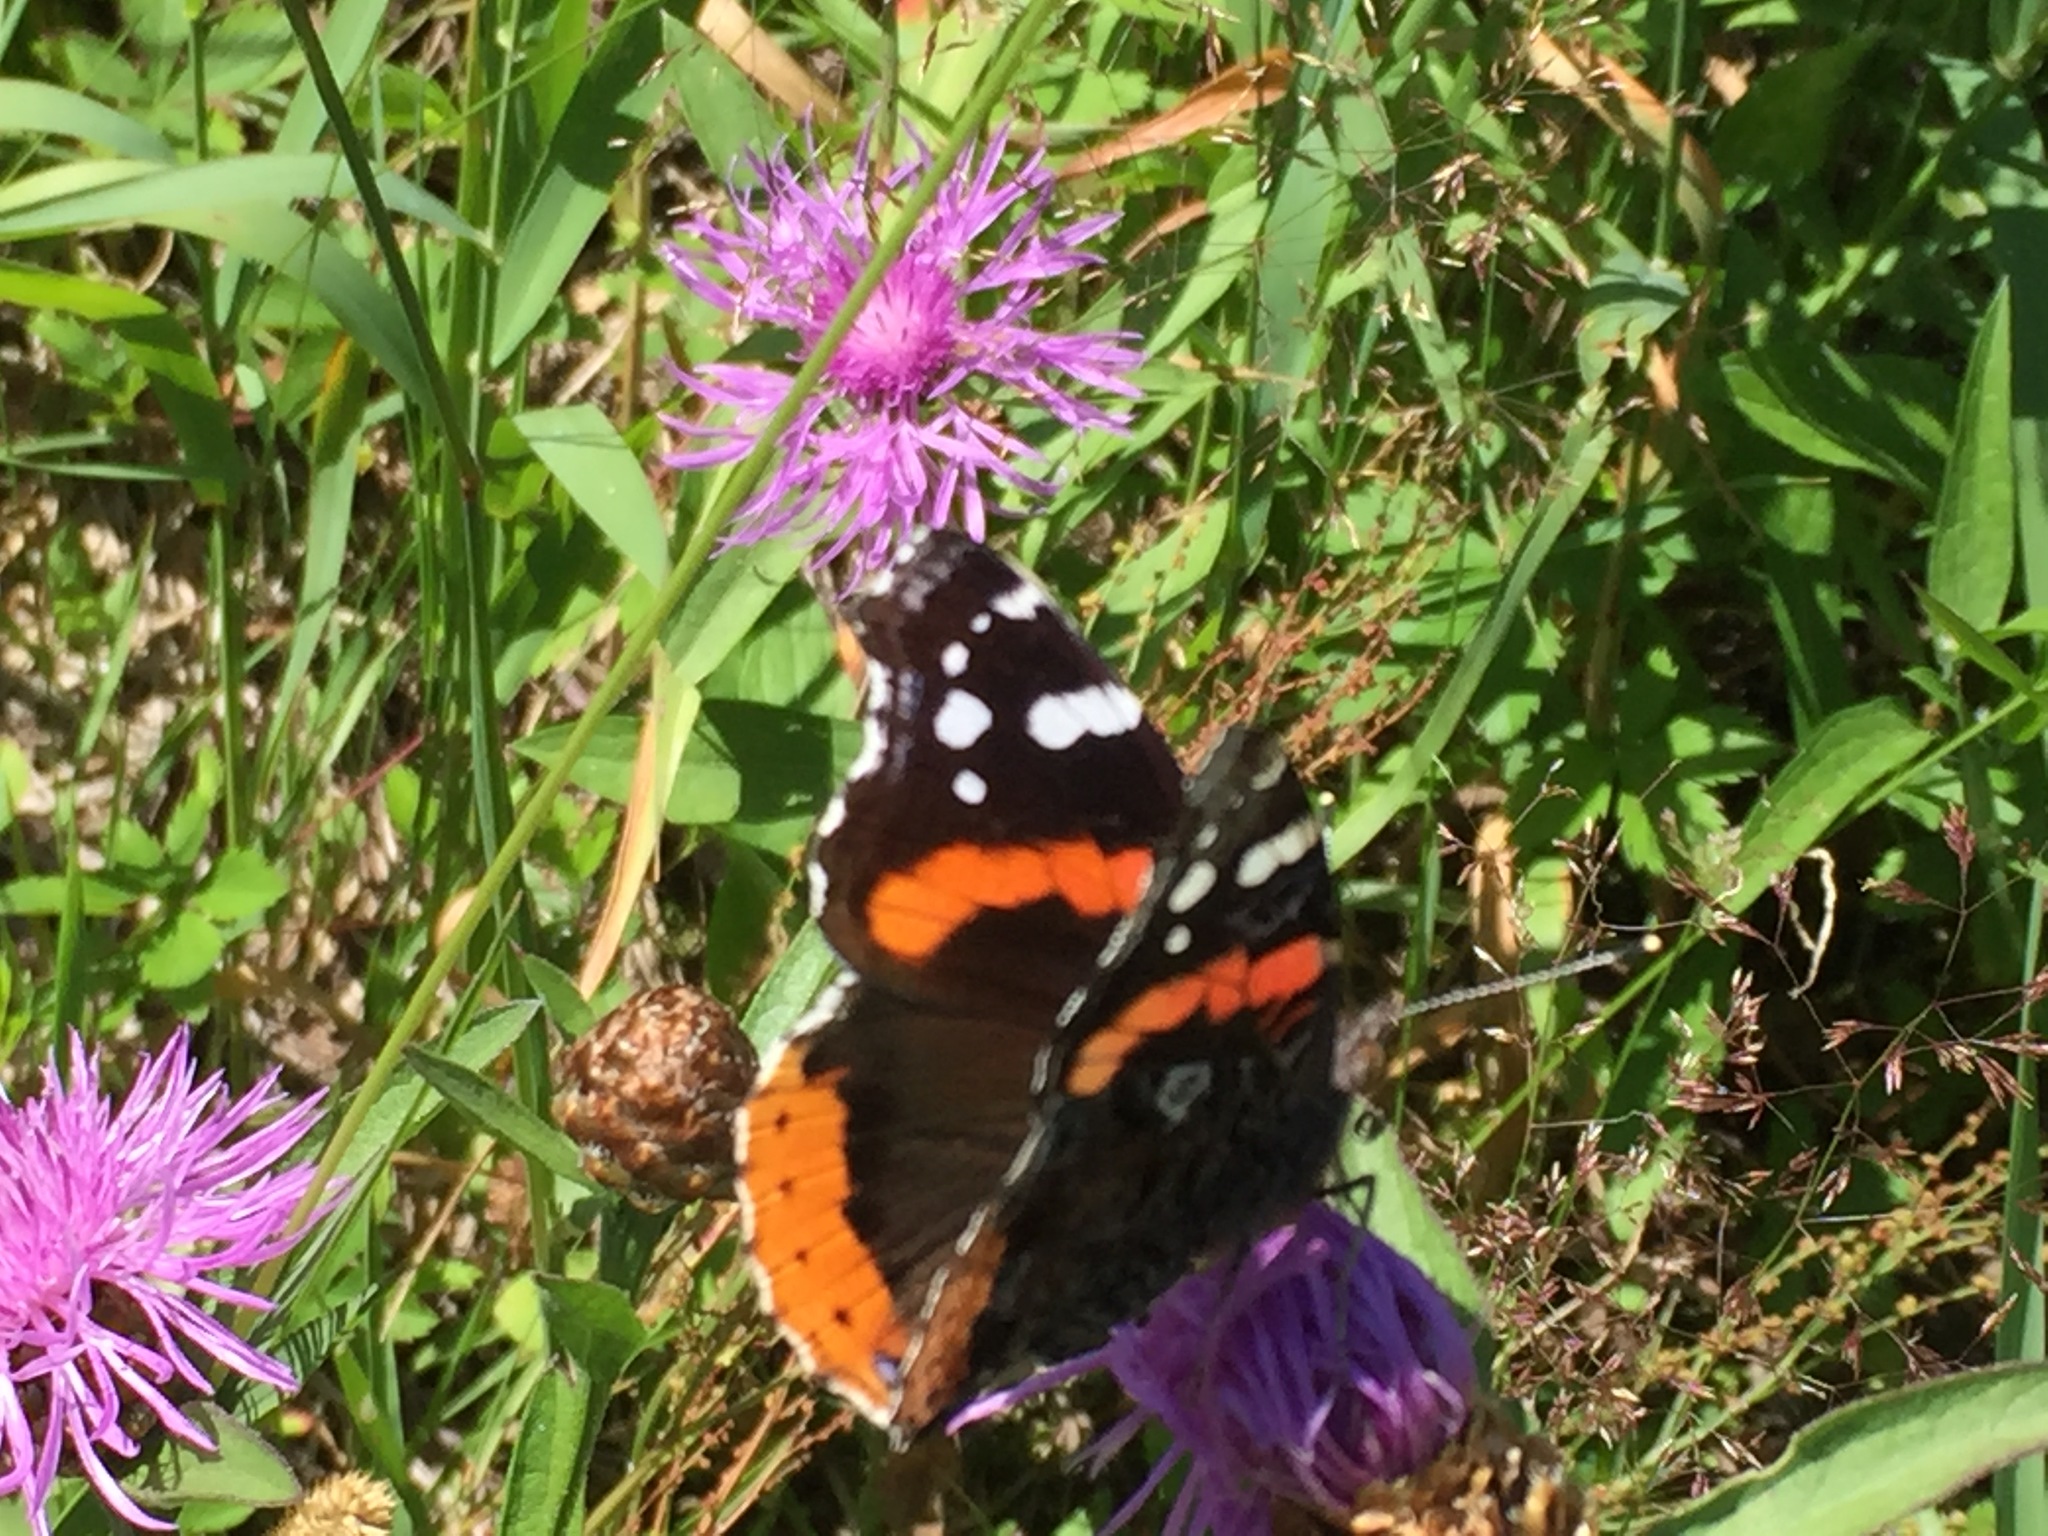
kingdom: Animalia
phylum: Arthropoda
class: Insecta
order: Lepidoptera
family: Nymphalidae
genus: Vanessa
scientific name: Vanessa atalanta
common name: Red admiral
